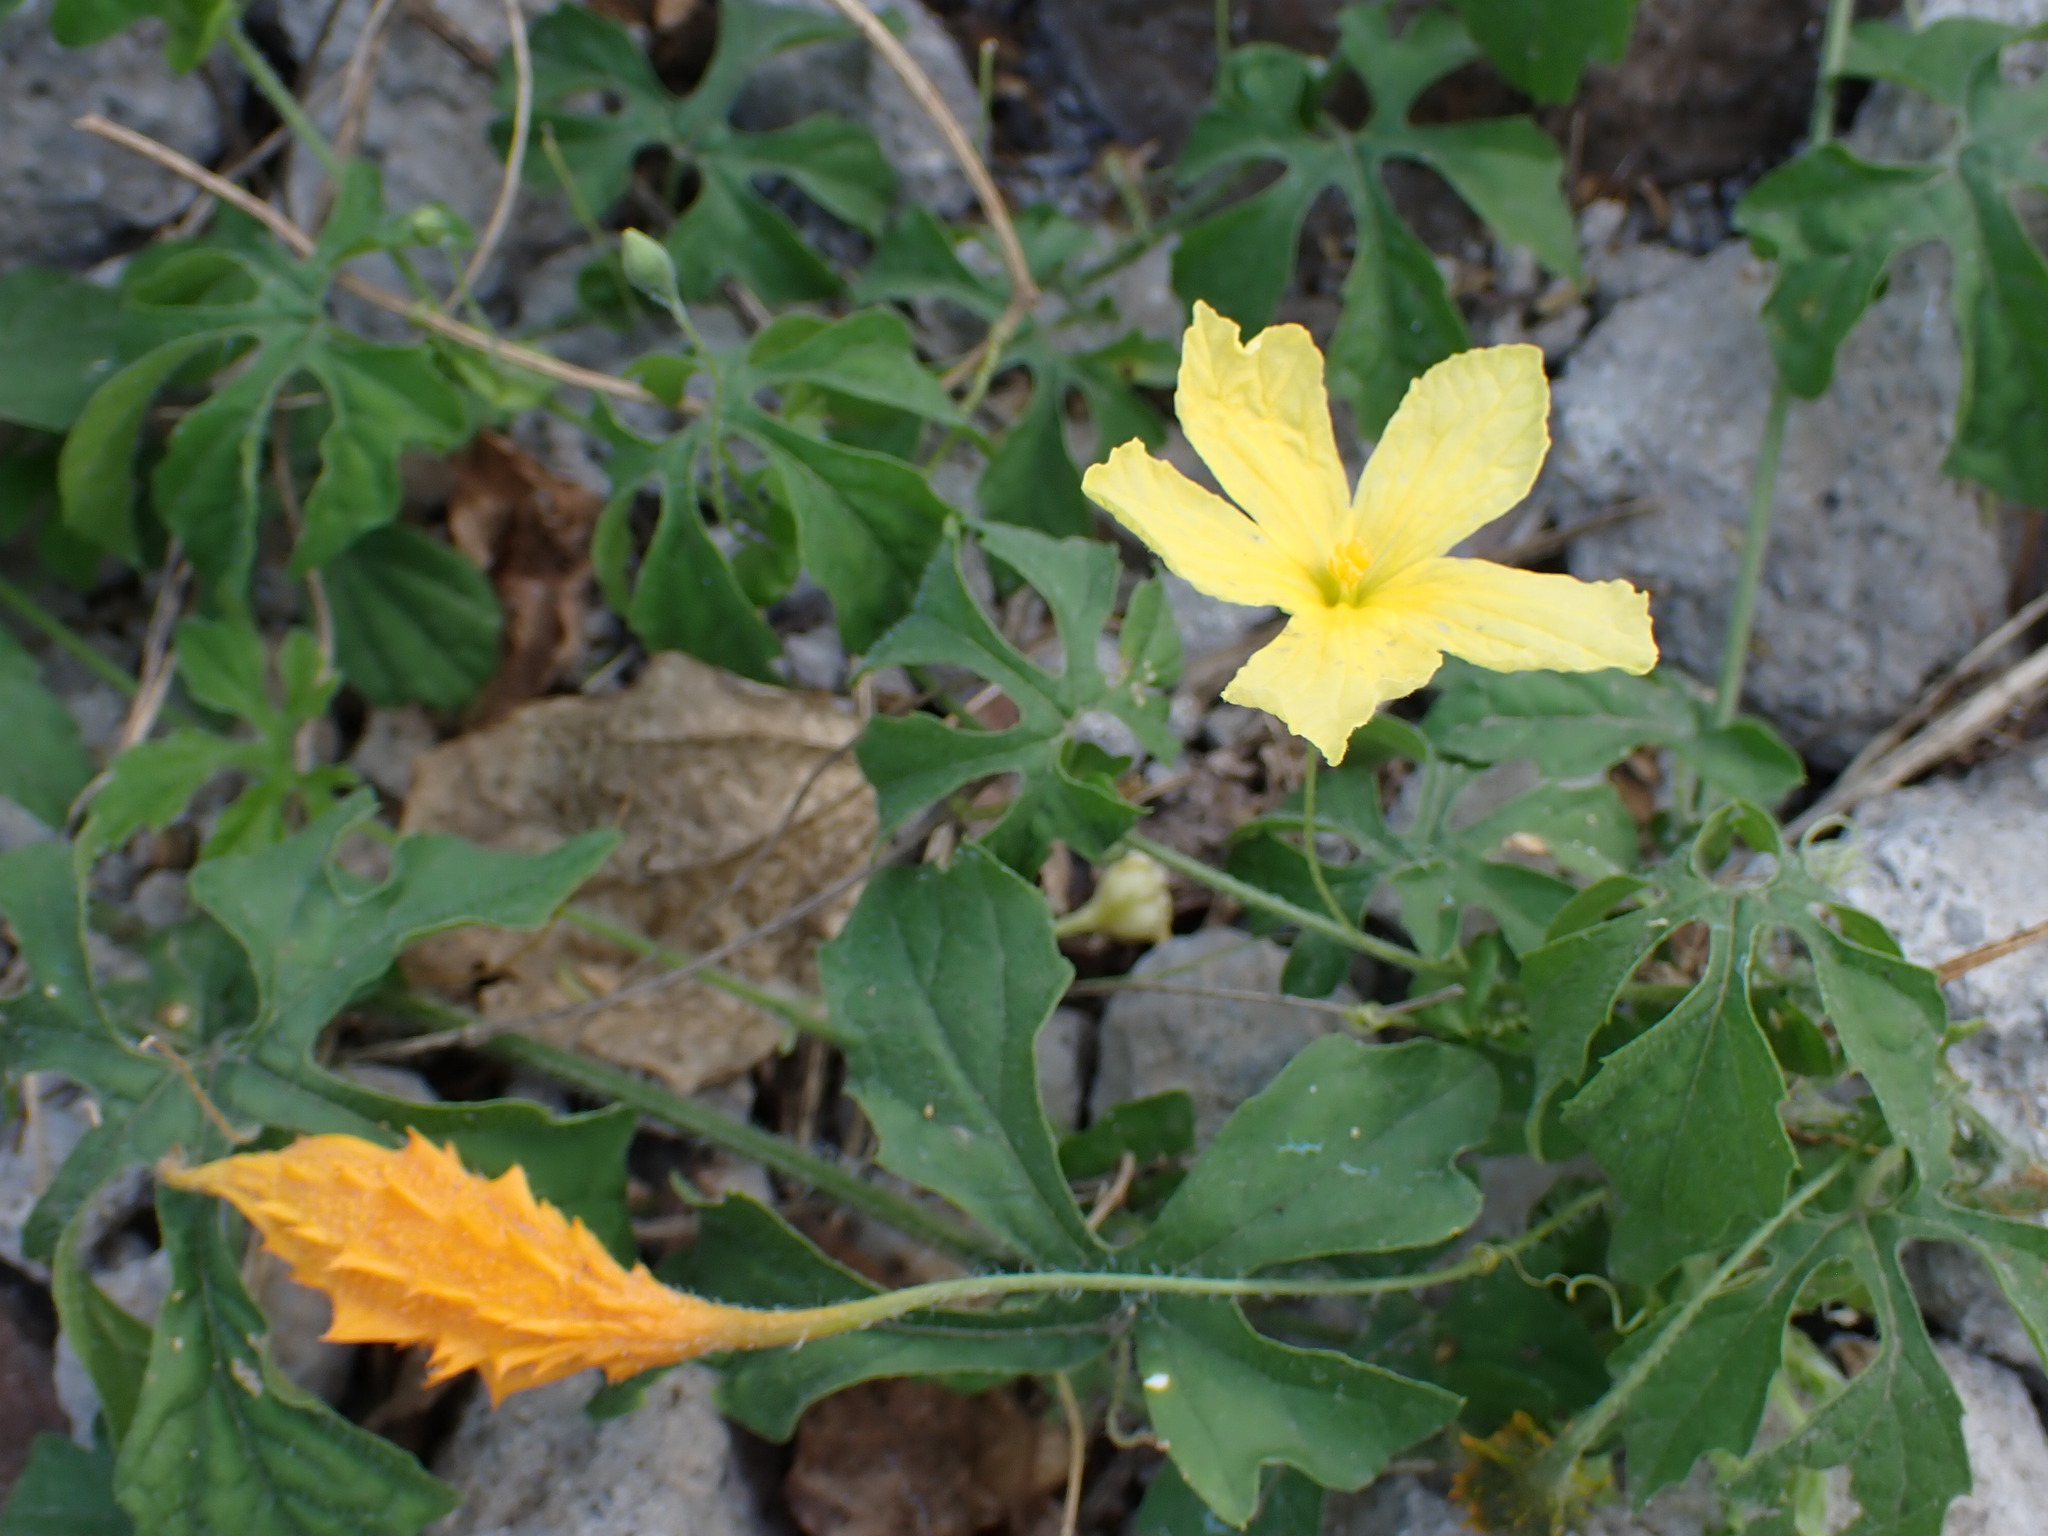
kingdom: Plantae
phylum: Tracheophyta
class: Magnoliopsida
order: Cucurbitales
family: Cucurbitaceae
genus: Momordica
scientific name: Momordica charantia
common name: Balsampear
